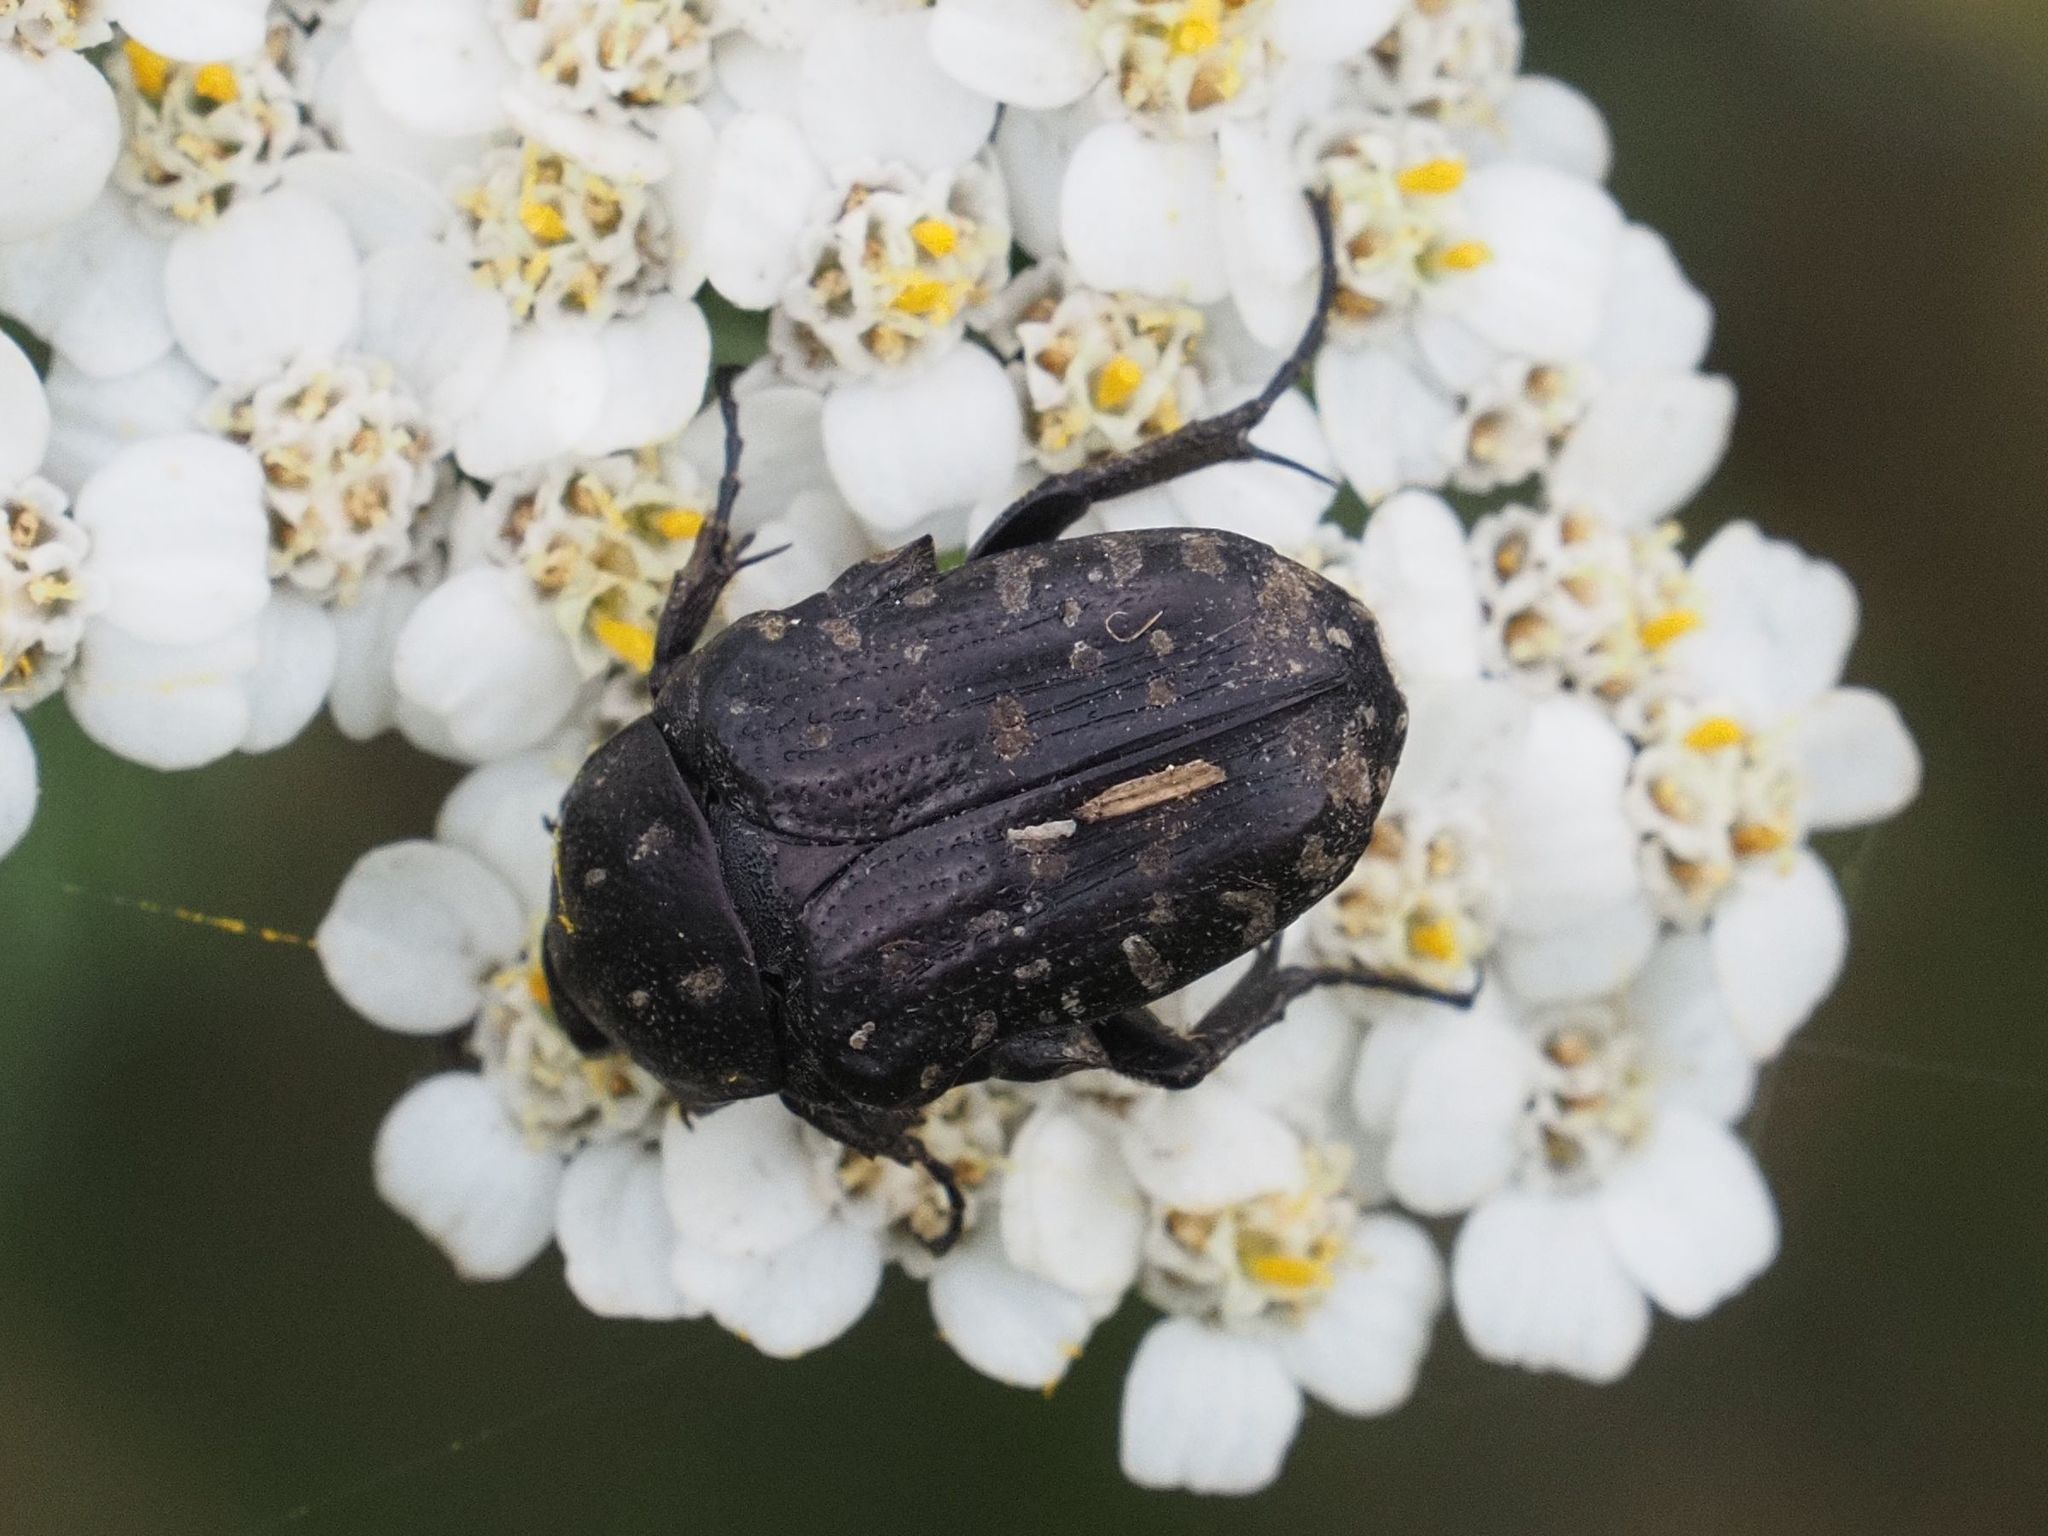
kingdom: Animalia
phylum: Arthropoda
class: Insecta
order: Coleoptera
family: Scarabaeidae
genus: Oxythyrea
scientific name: Oxythyrea funesta
